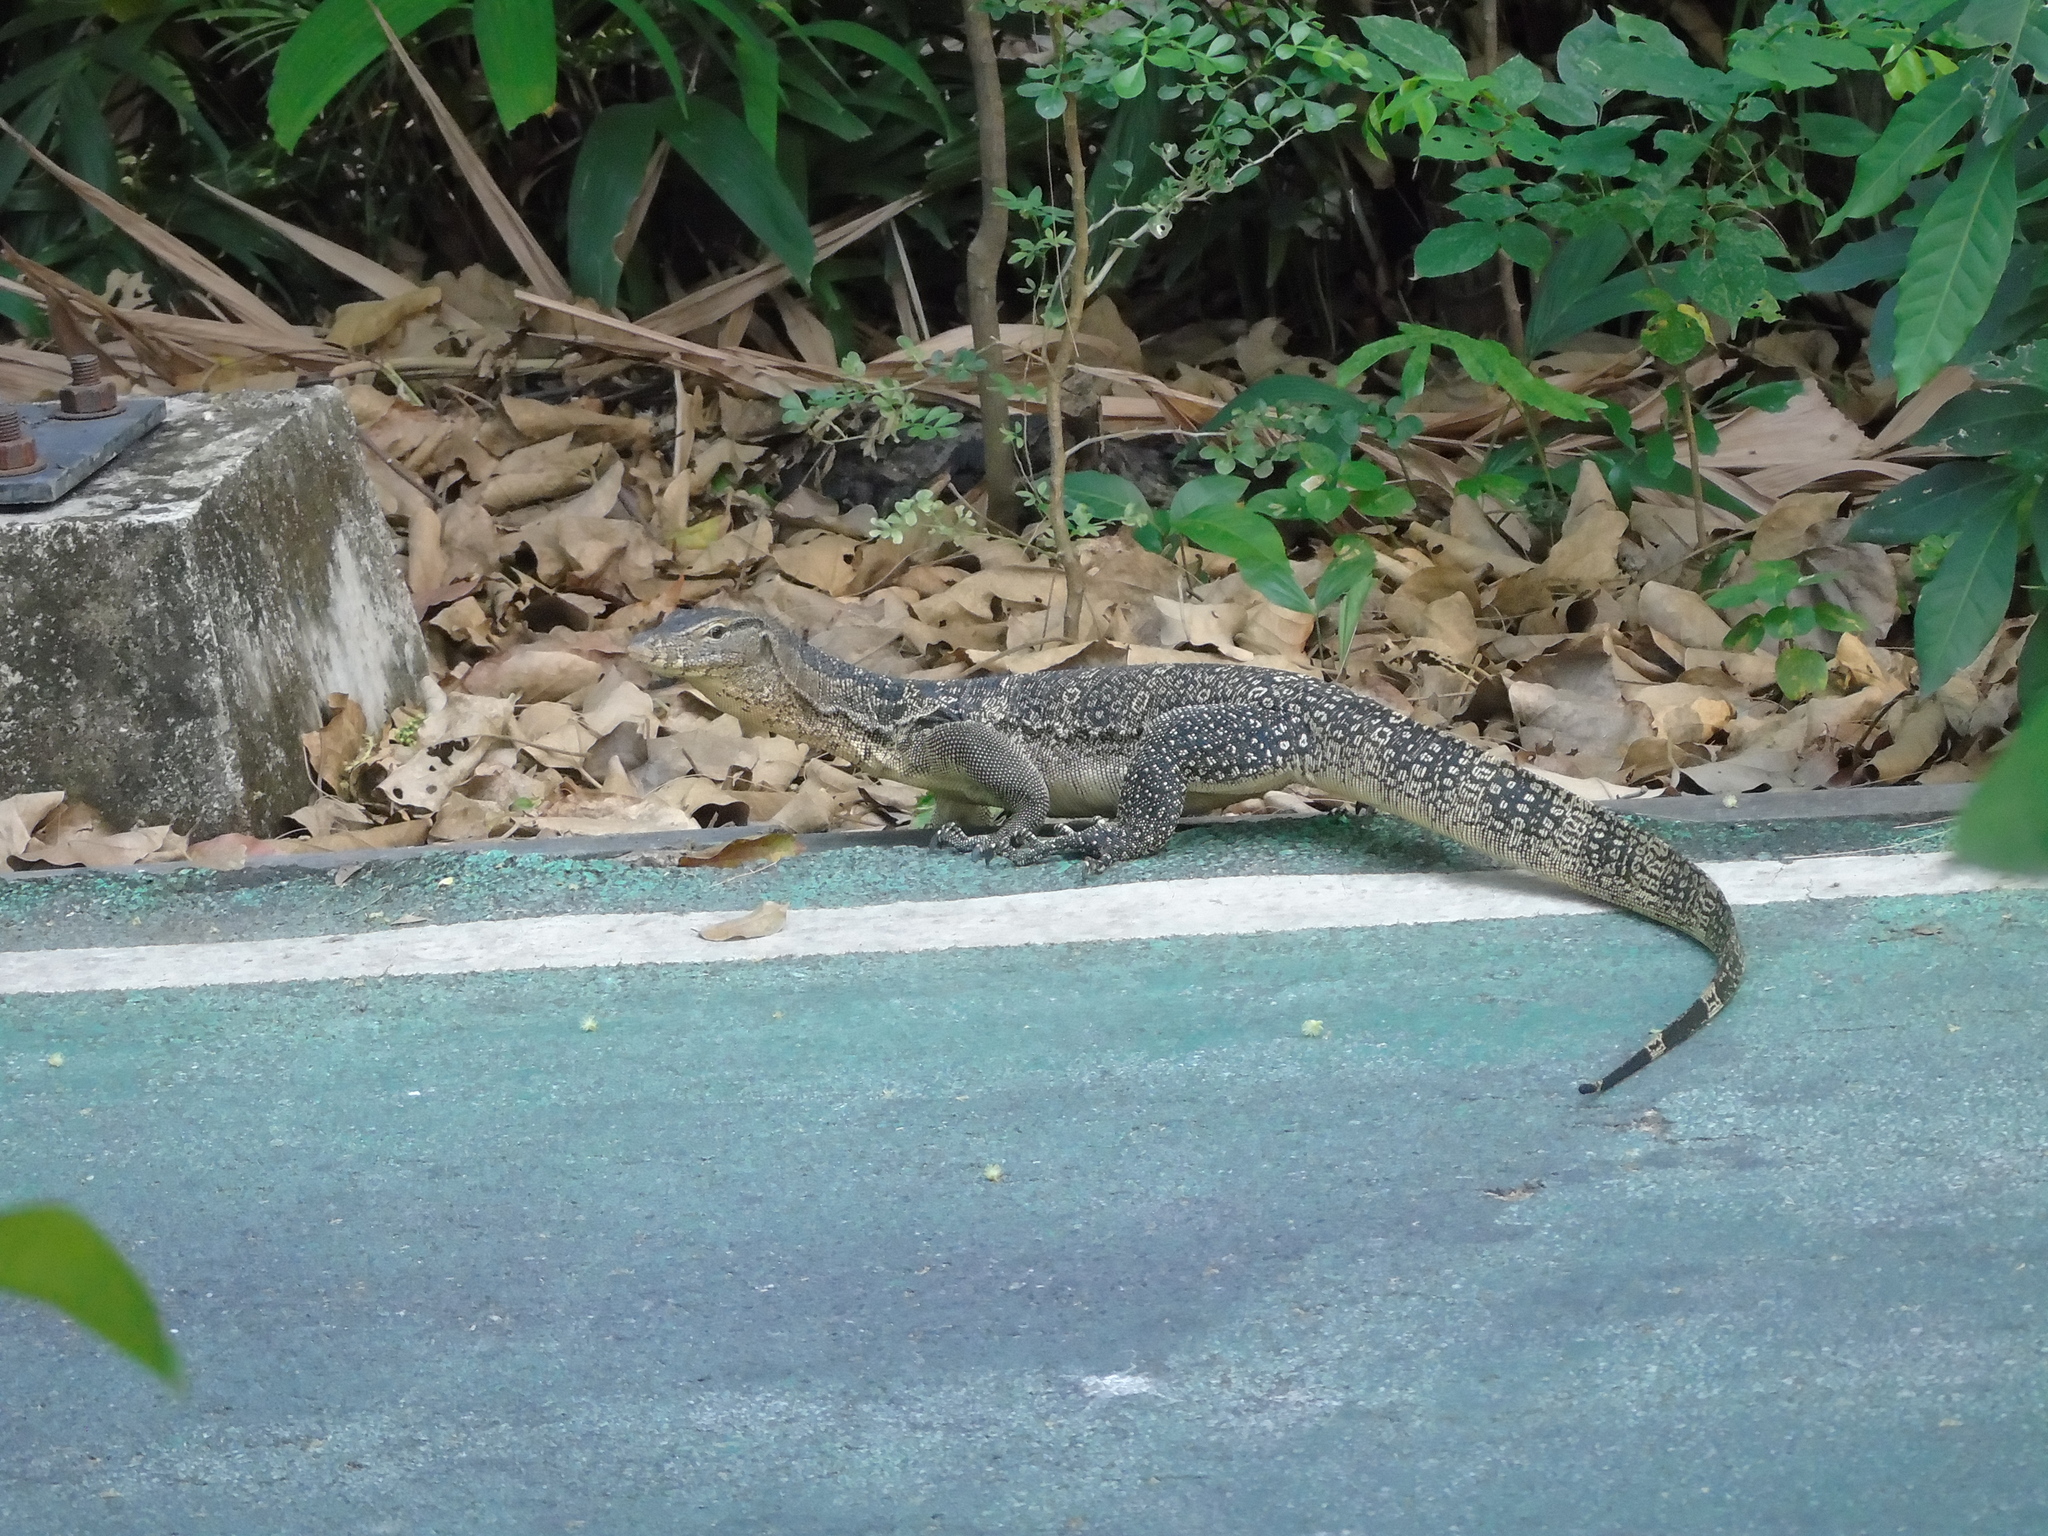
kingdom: Animalia
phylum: Chordata
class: Squamata
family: Varanidae
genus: Varanus
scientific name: Varanus salvator
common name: Common water monitor
